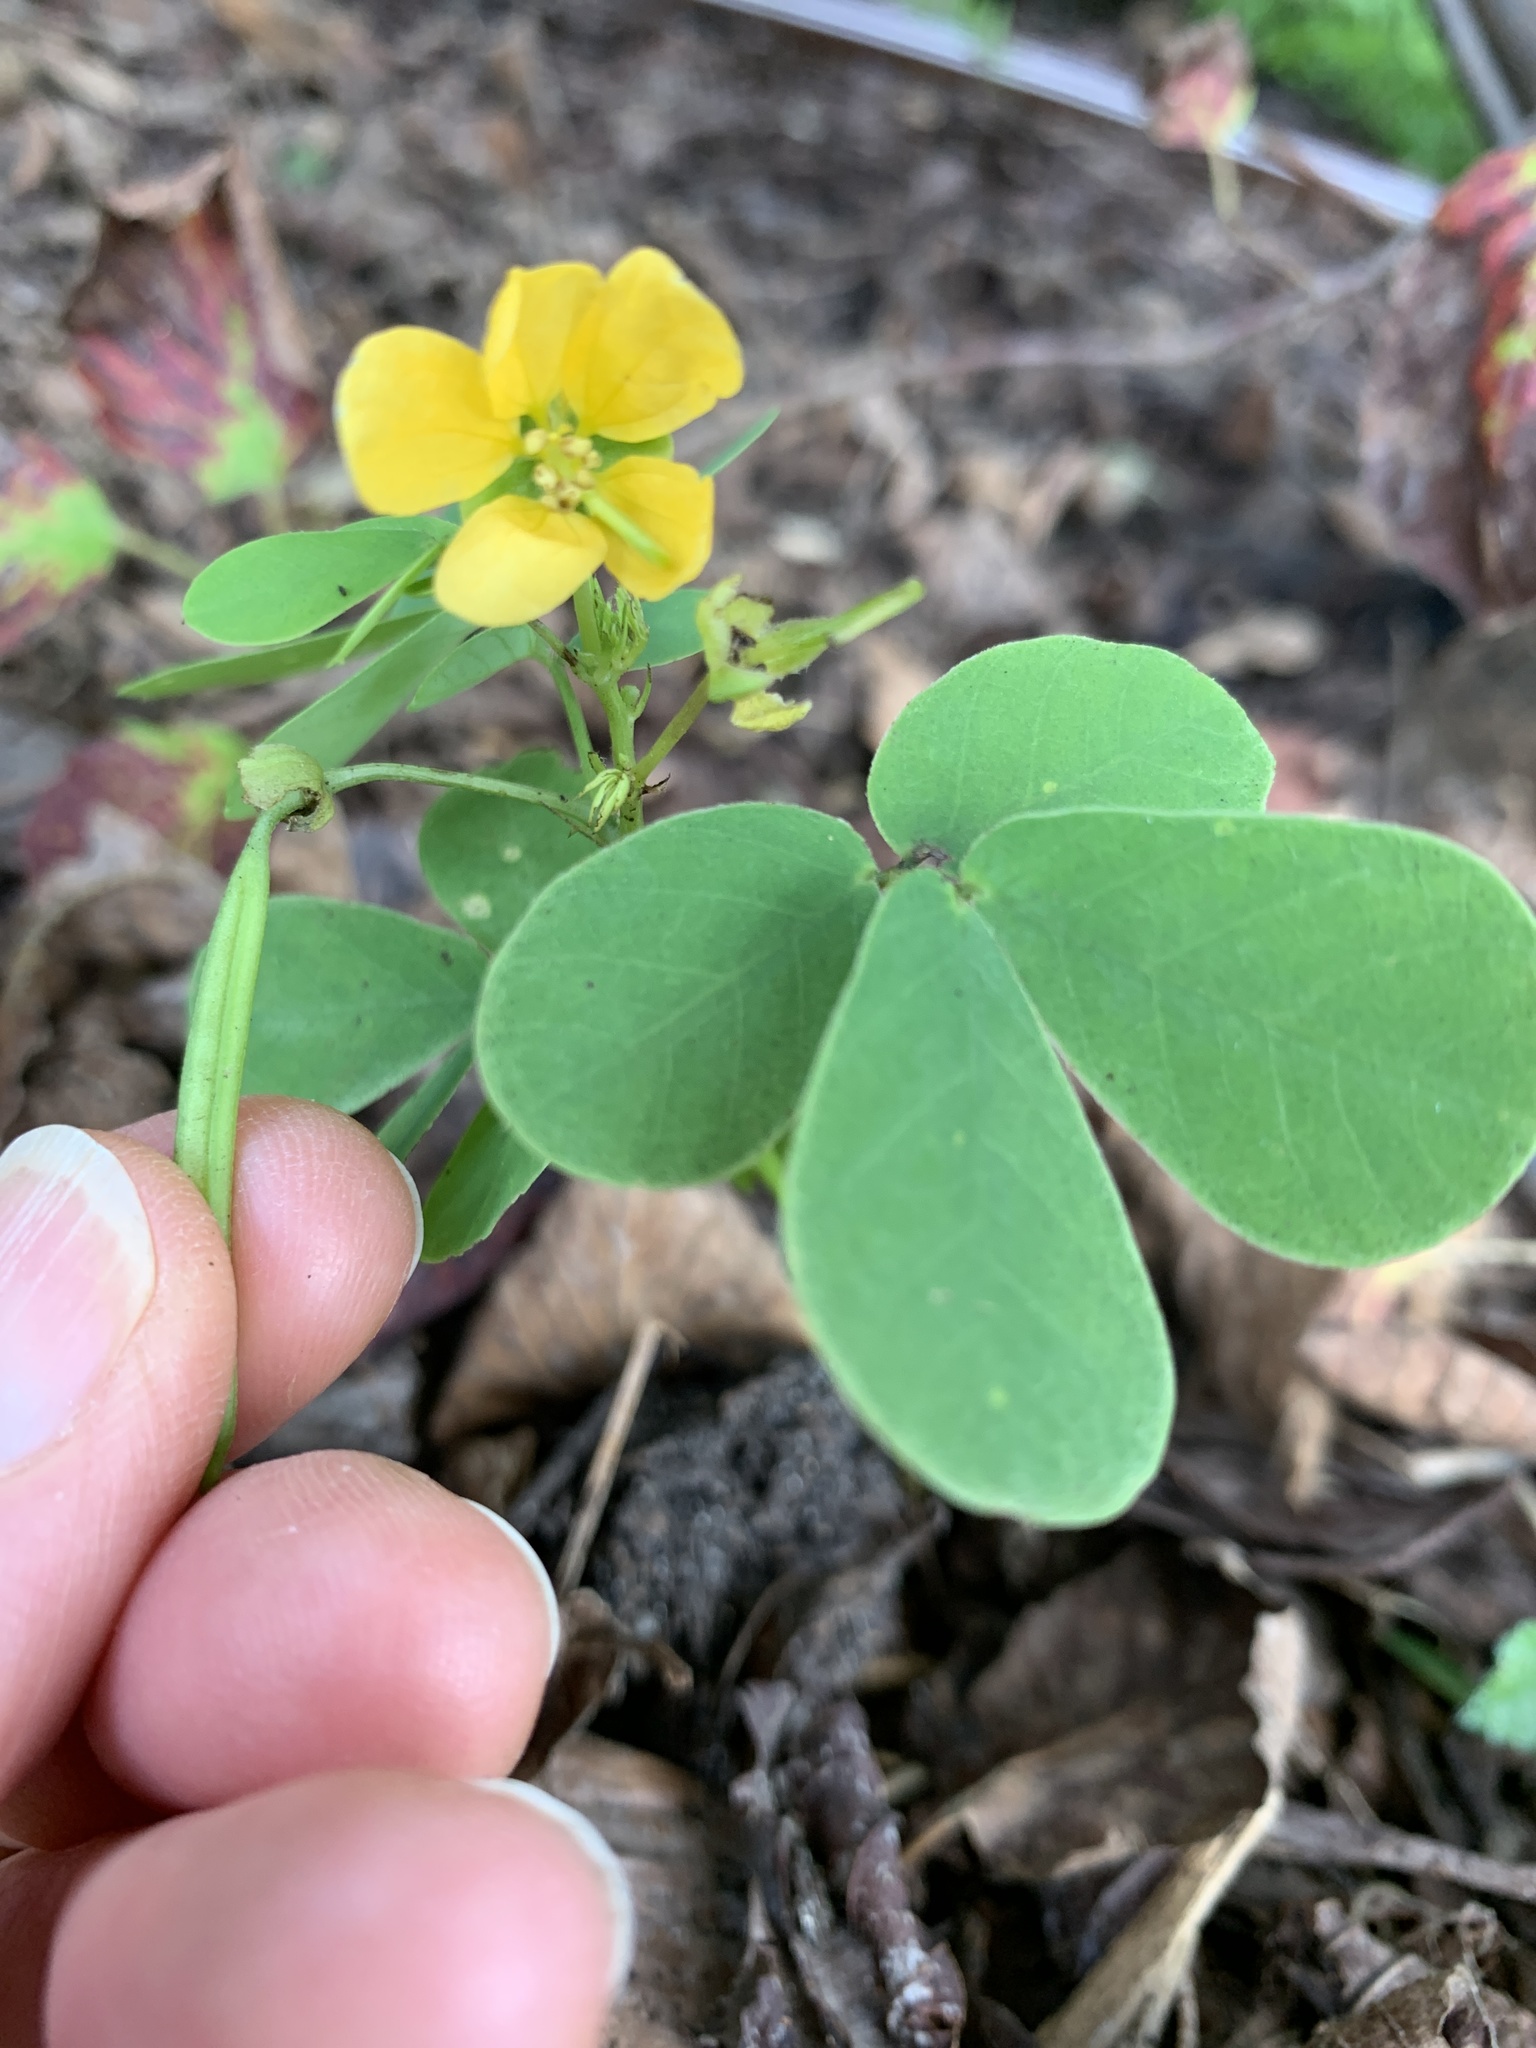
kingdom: Plantae
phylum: Tracheophyta
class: Magnoliopsida
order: Fabales
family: Fabaceae
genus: Senna
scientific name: Senna obtusifolia
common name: Java-bean
